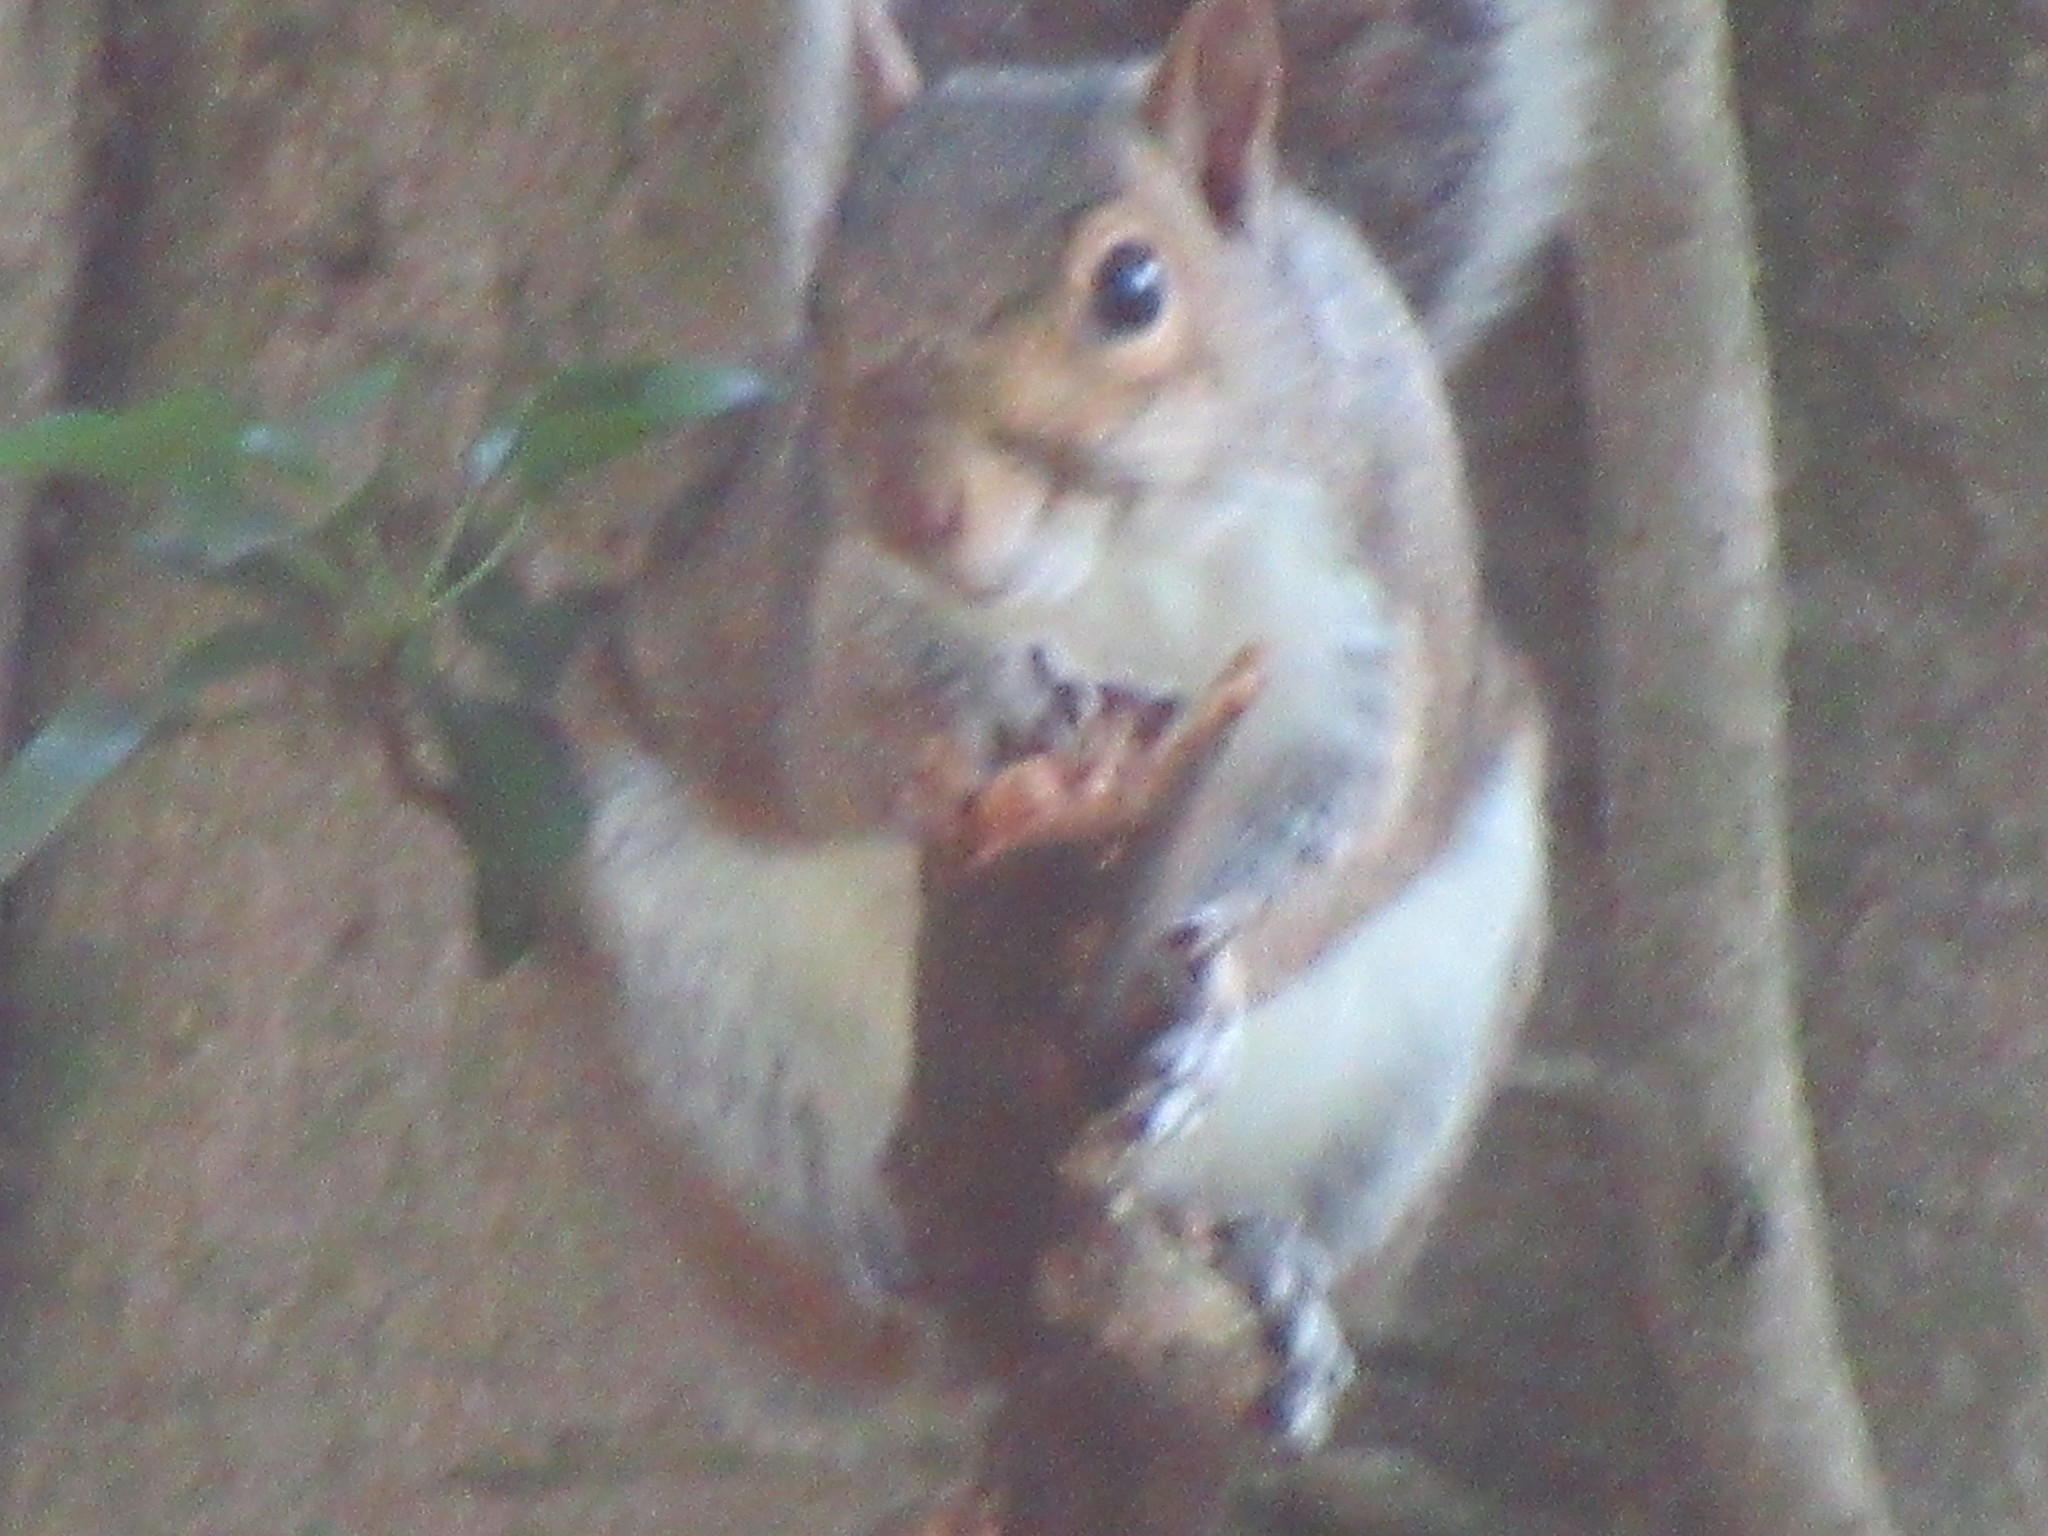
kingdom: Animalia
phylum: Chordata
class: Mammalia
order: Rodentia
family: Sciuridae
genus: Sciurus
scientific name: Sciurus carolinensis
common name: Eastern gray squirrel
